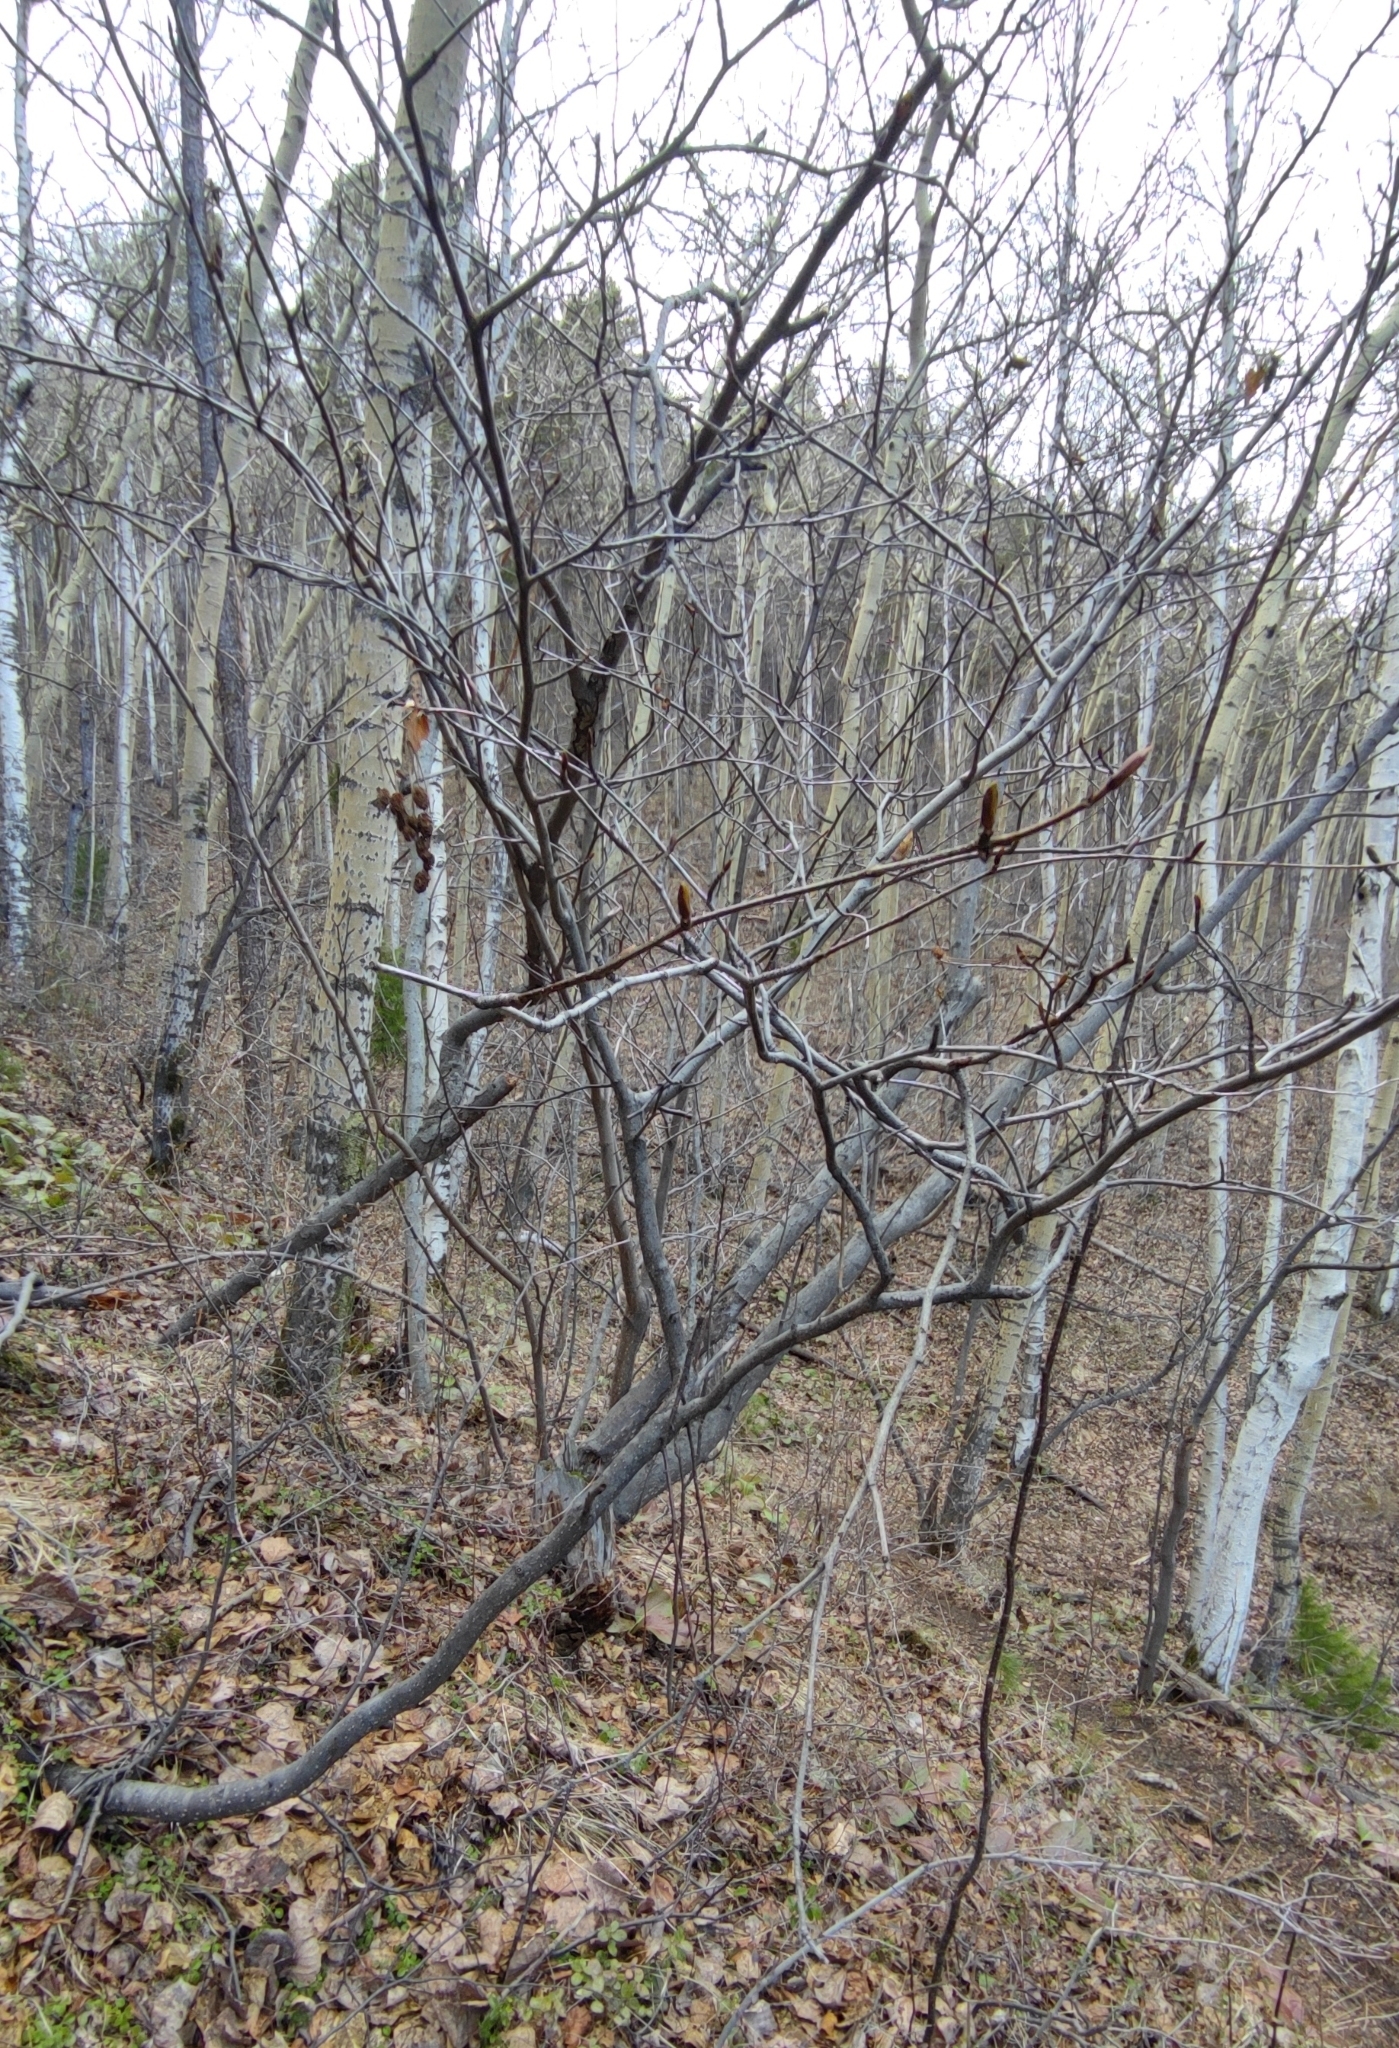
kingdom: Plantae
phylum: Tracheophyta
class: Magnoliopsida
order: Fagales
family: Betulaceae
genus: Alnus
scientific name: Alnus alnobetula
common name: Green alder
